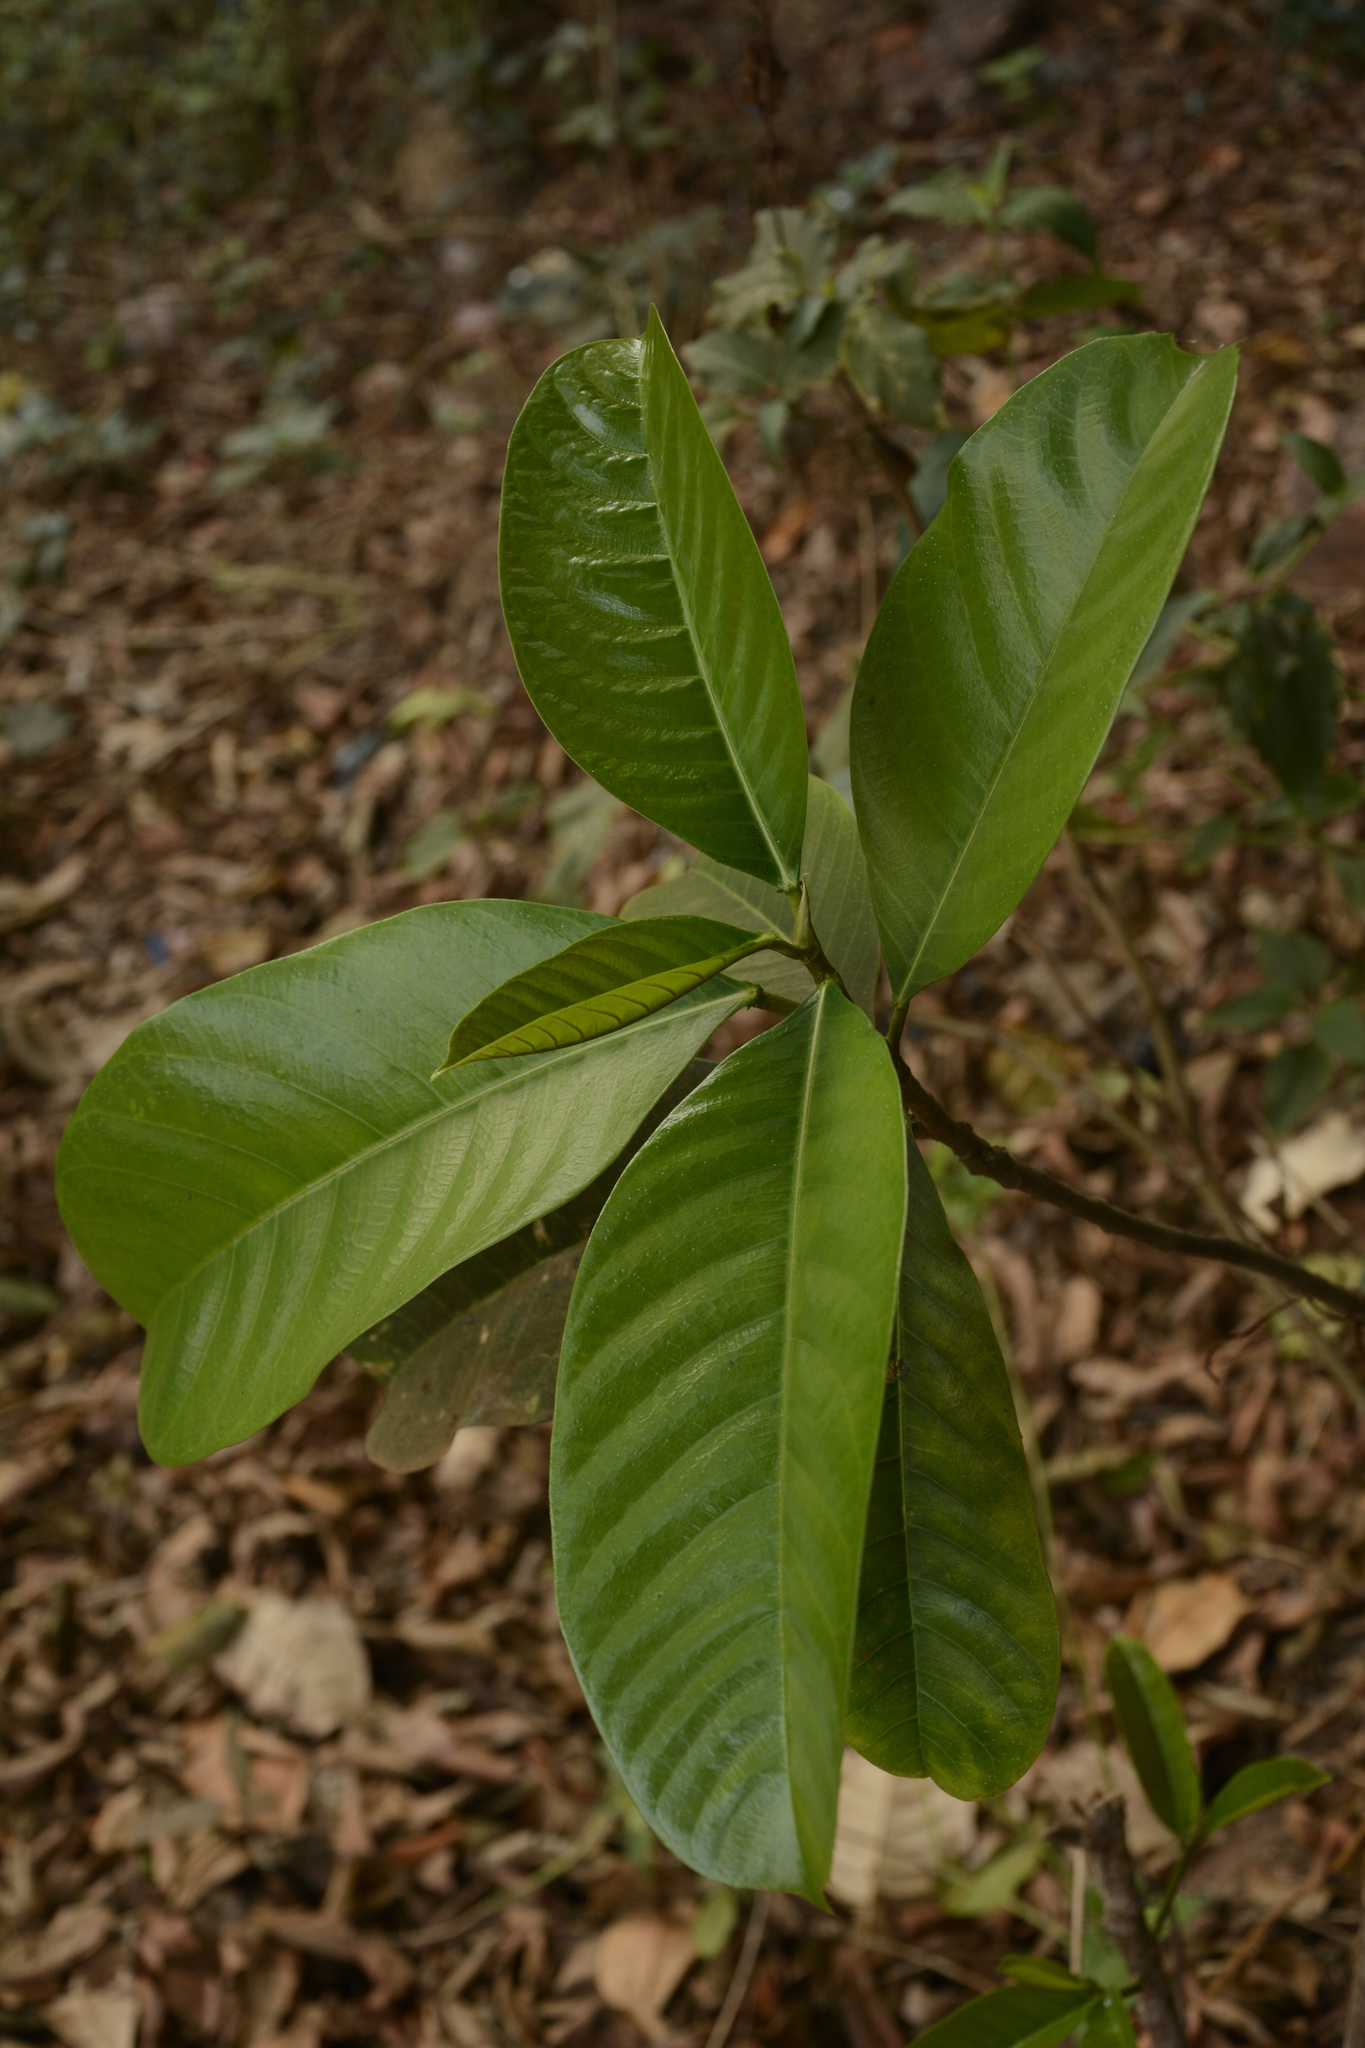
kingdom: Plantae
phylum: Tracheophyta
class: Magnoliopsida
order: Rosales
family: Moraceae
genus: Ficus
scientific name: Ficus callosa
